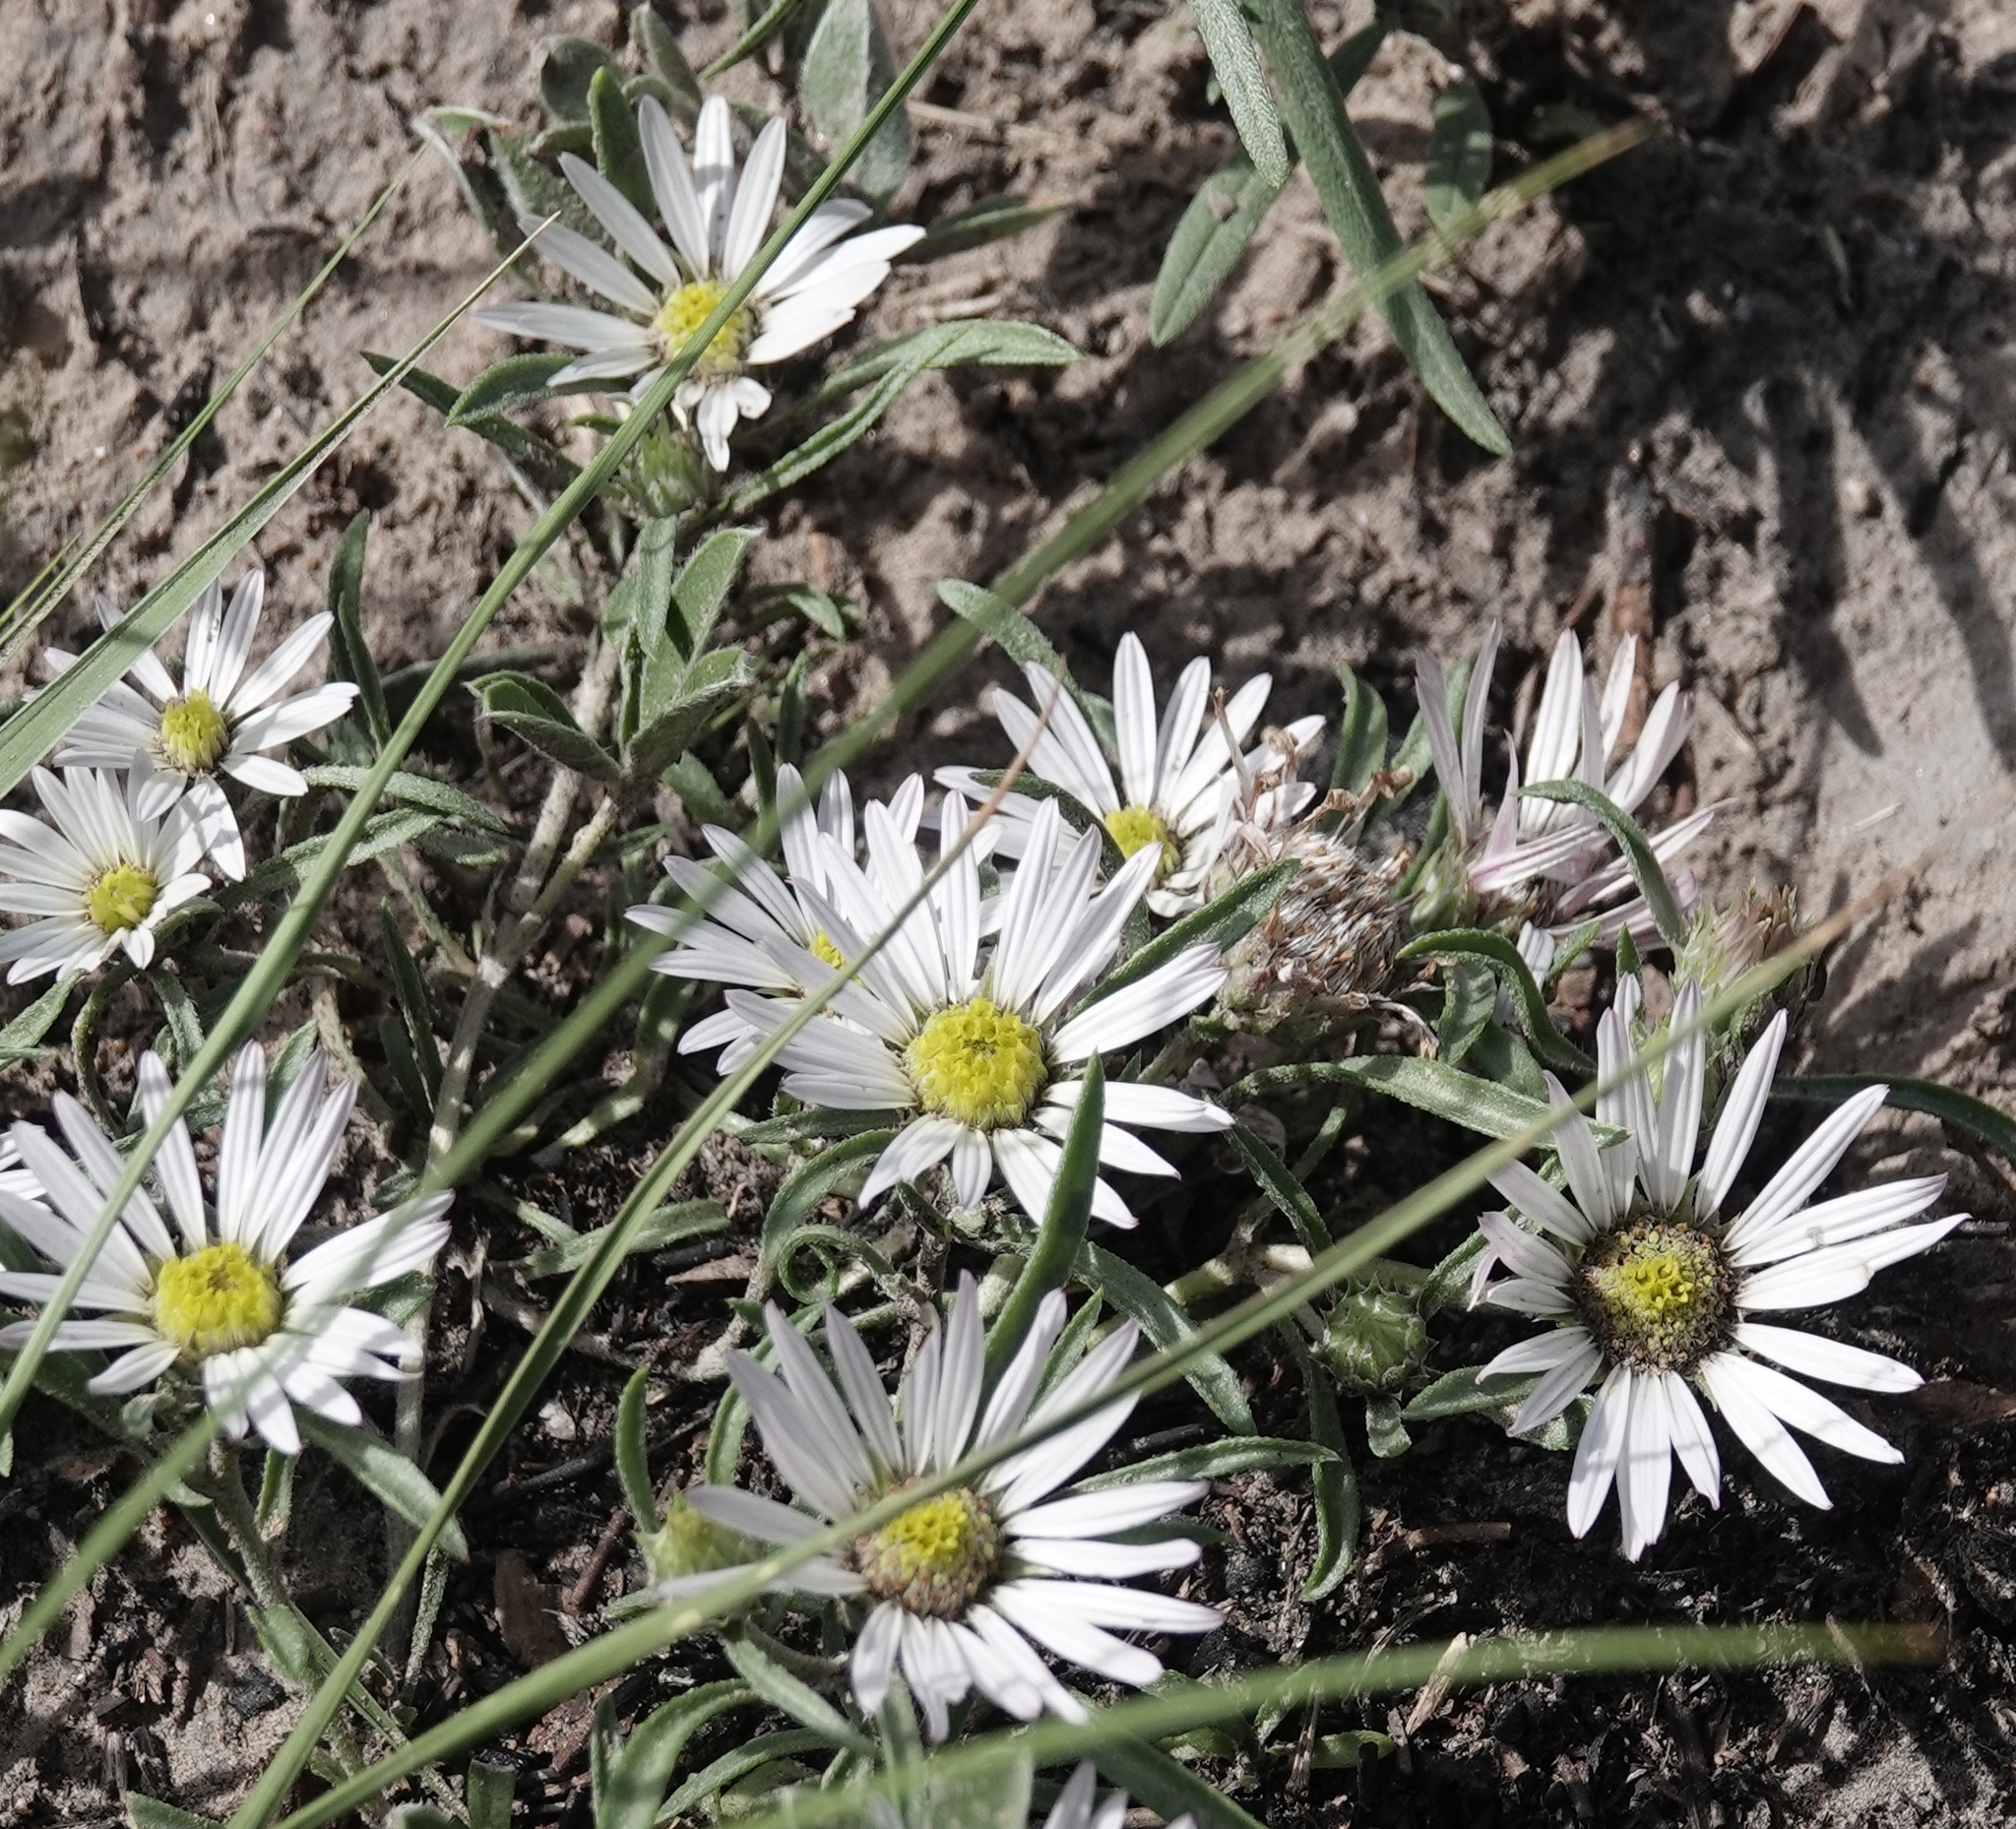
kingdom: Plantae
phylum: Tracheophyta
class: Magnoliopsida
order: Asterales
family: Asteraceae
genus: Townsendia
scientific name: Townsendia grandiflora
